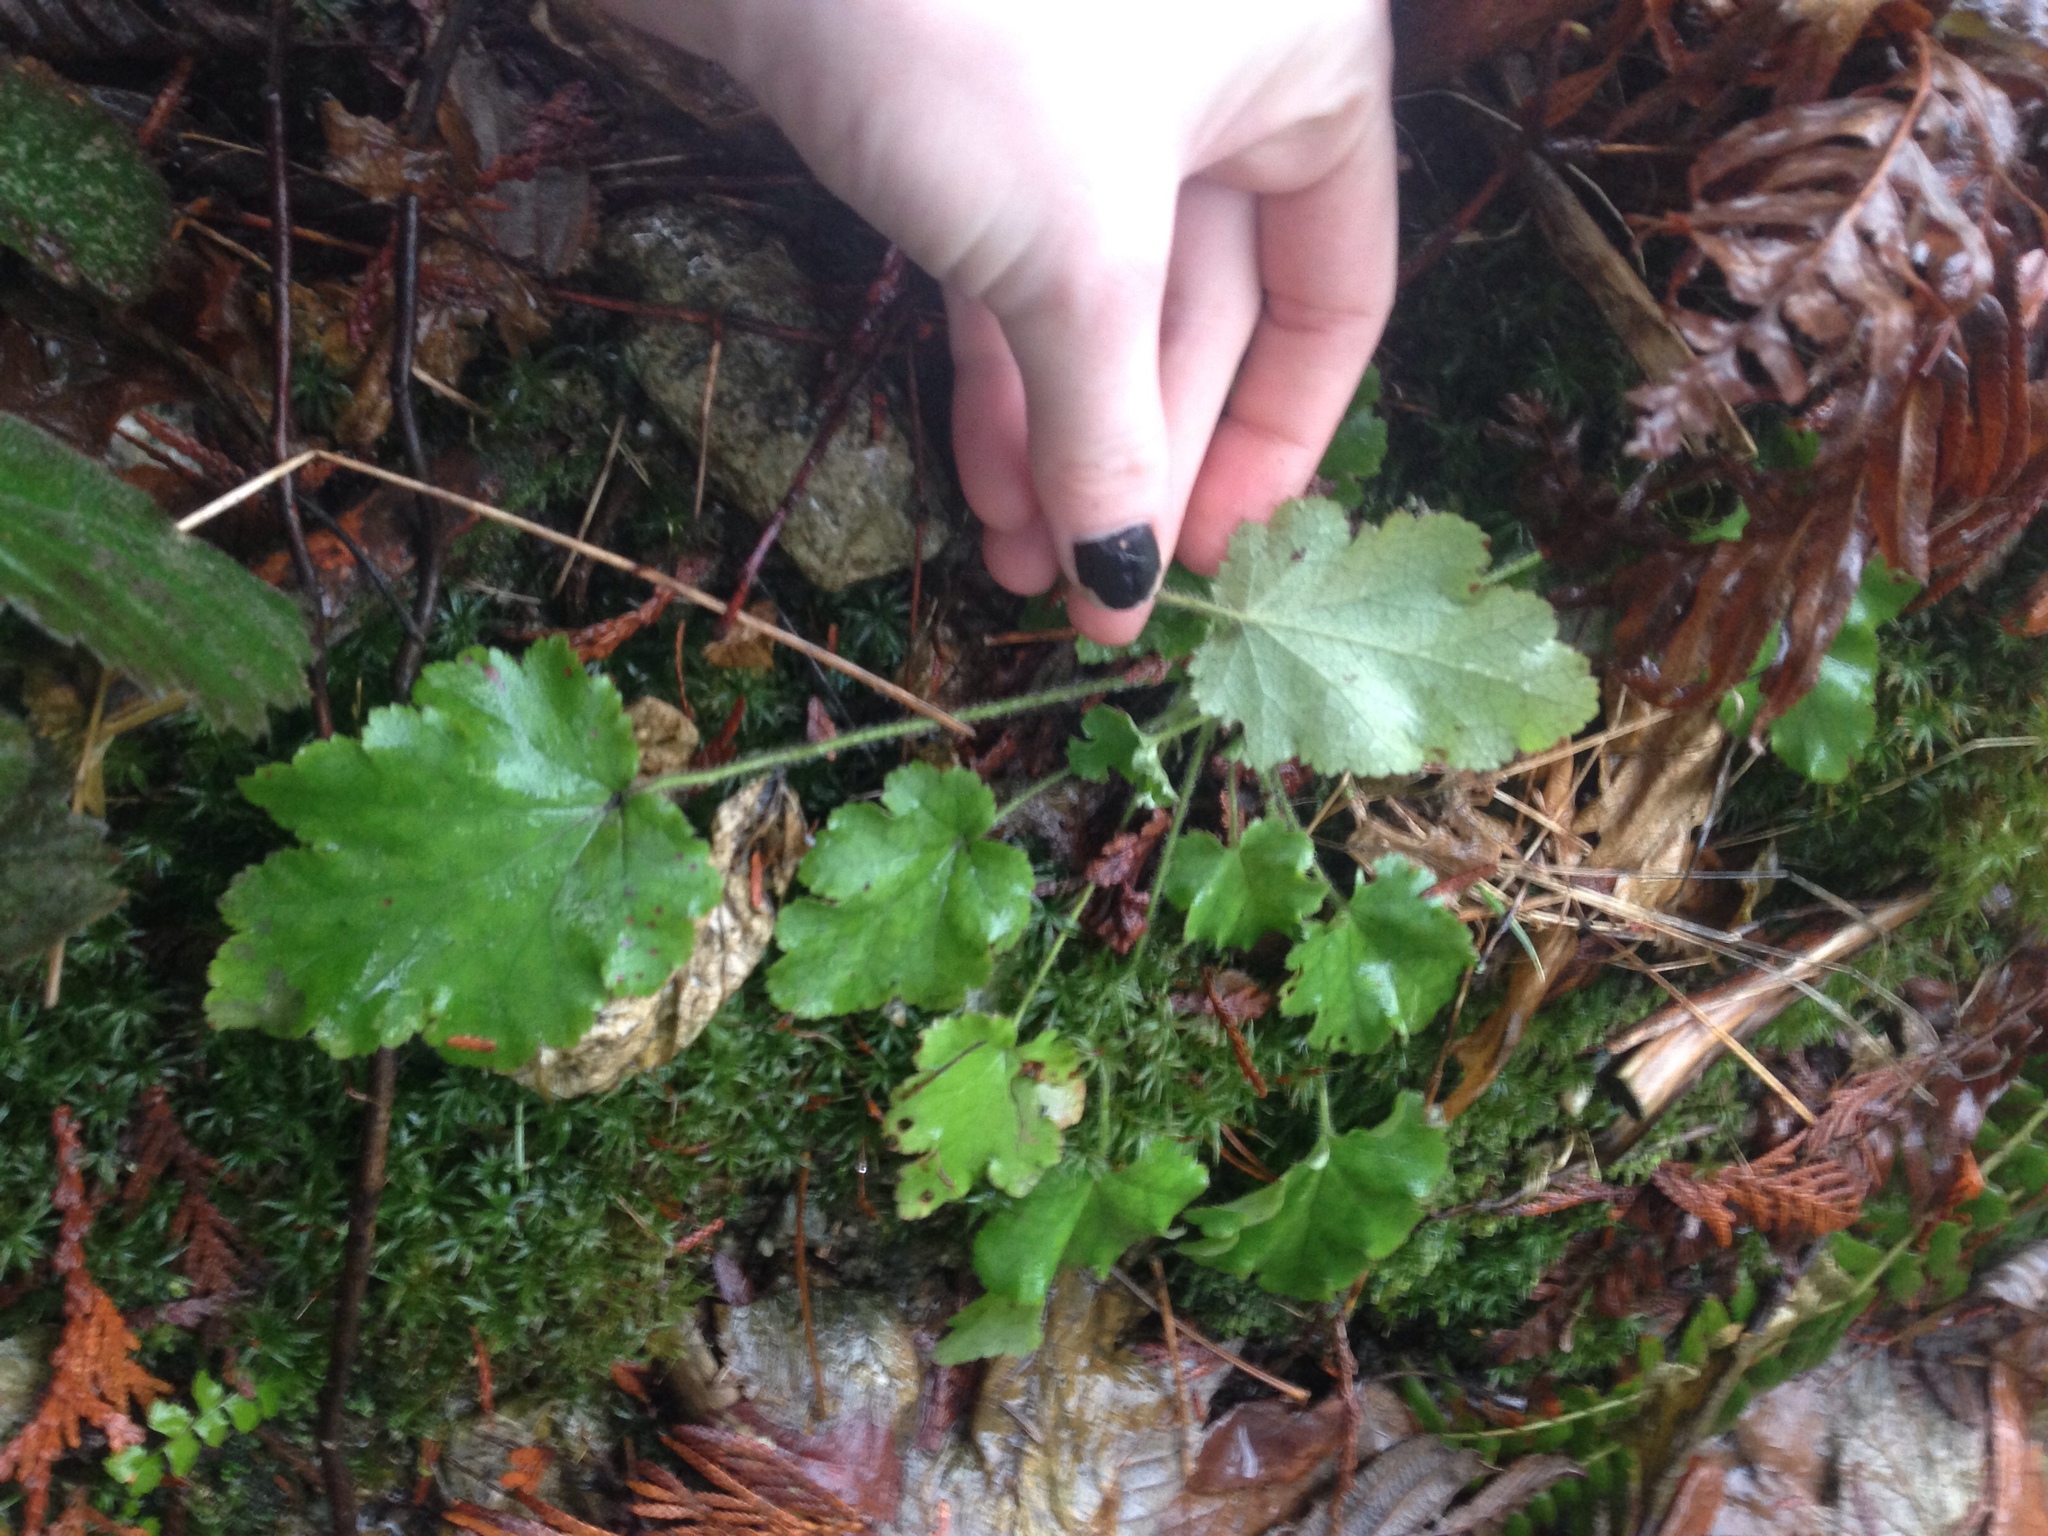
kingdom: Plantae
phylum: Tracheophyta
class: Magnoliopsida
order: Saxifragales
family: Saxifragaceae
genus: Heuchera
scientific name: Heuchera micrantha
